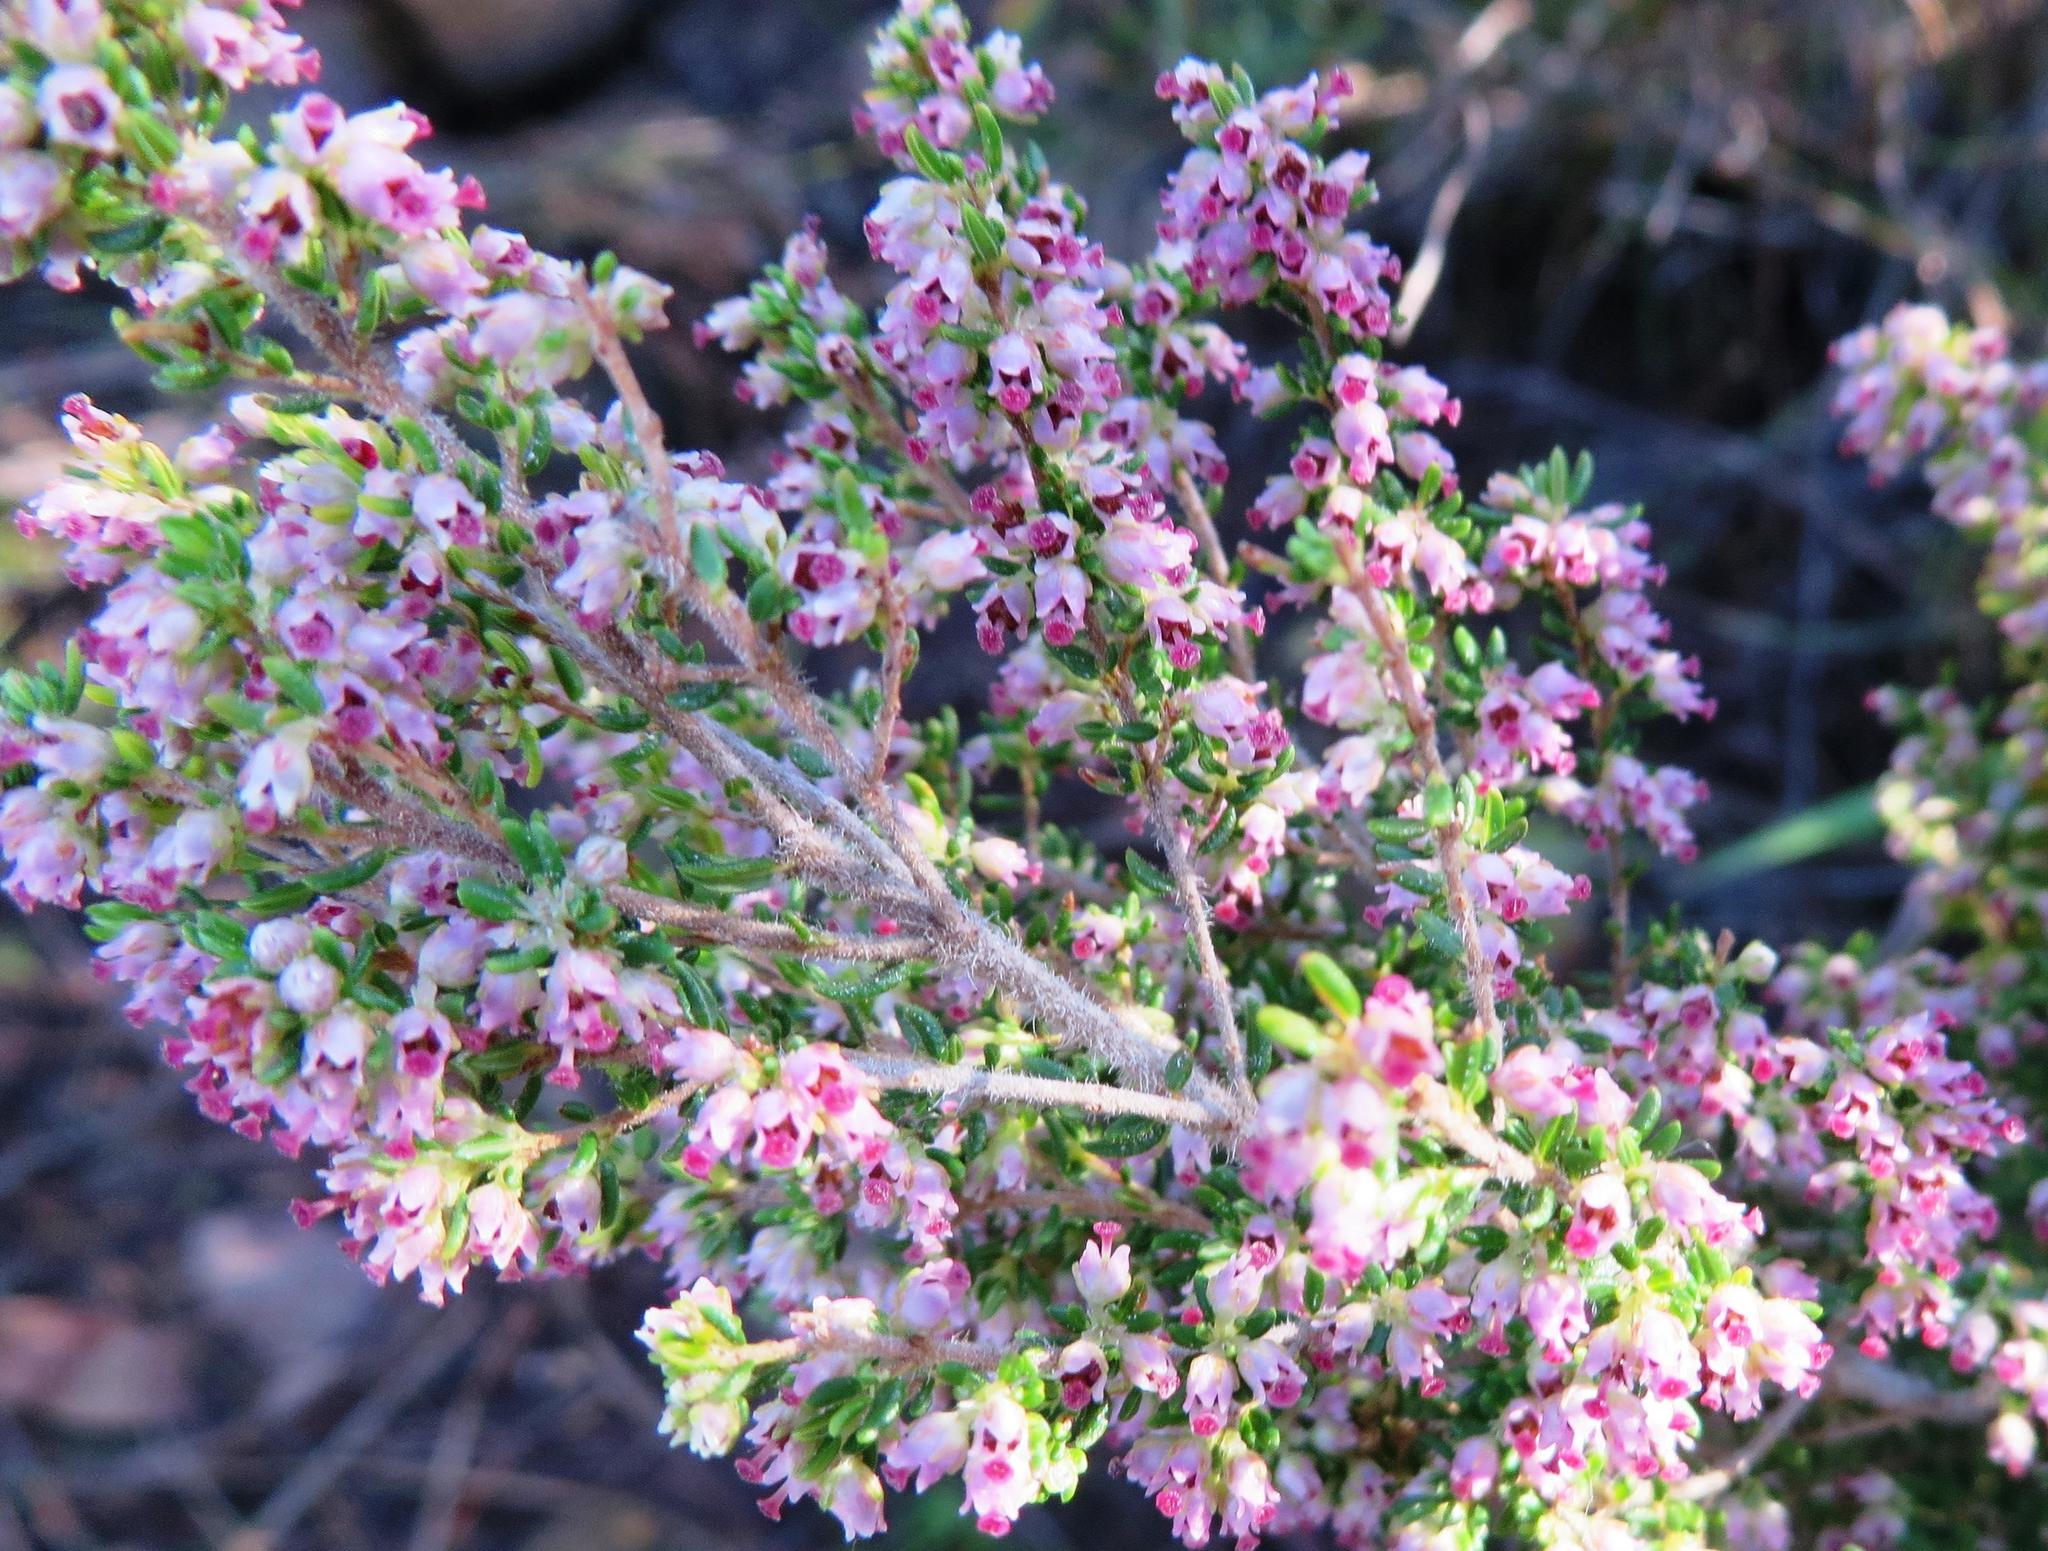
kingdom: Plantae
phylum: Tracheophyta
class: Magnoliopsida
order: Ericales
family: Ericaceae
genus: Erica
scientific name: Erica hispidula
